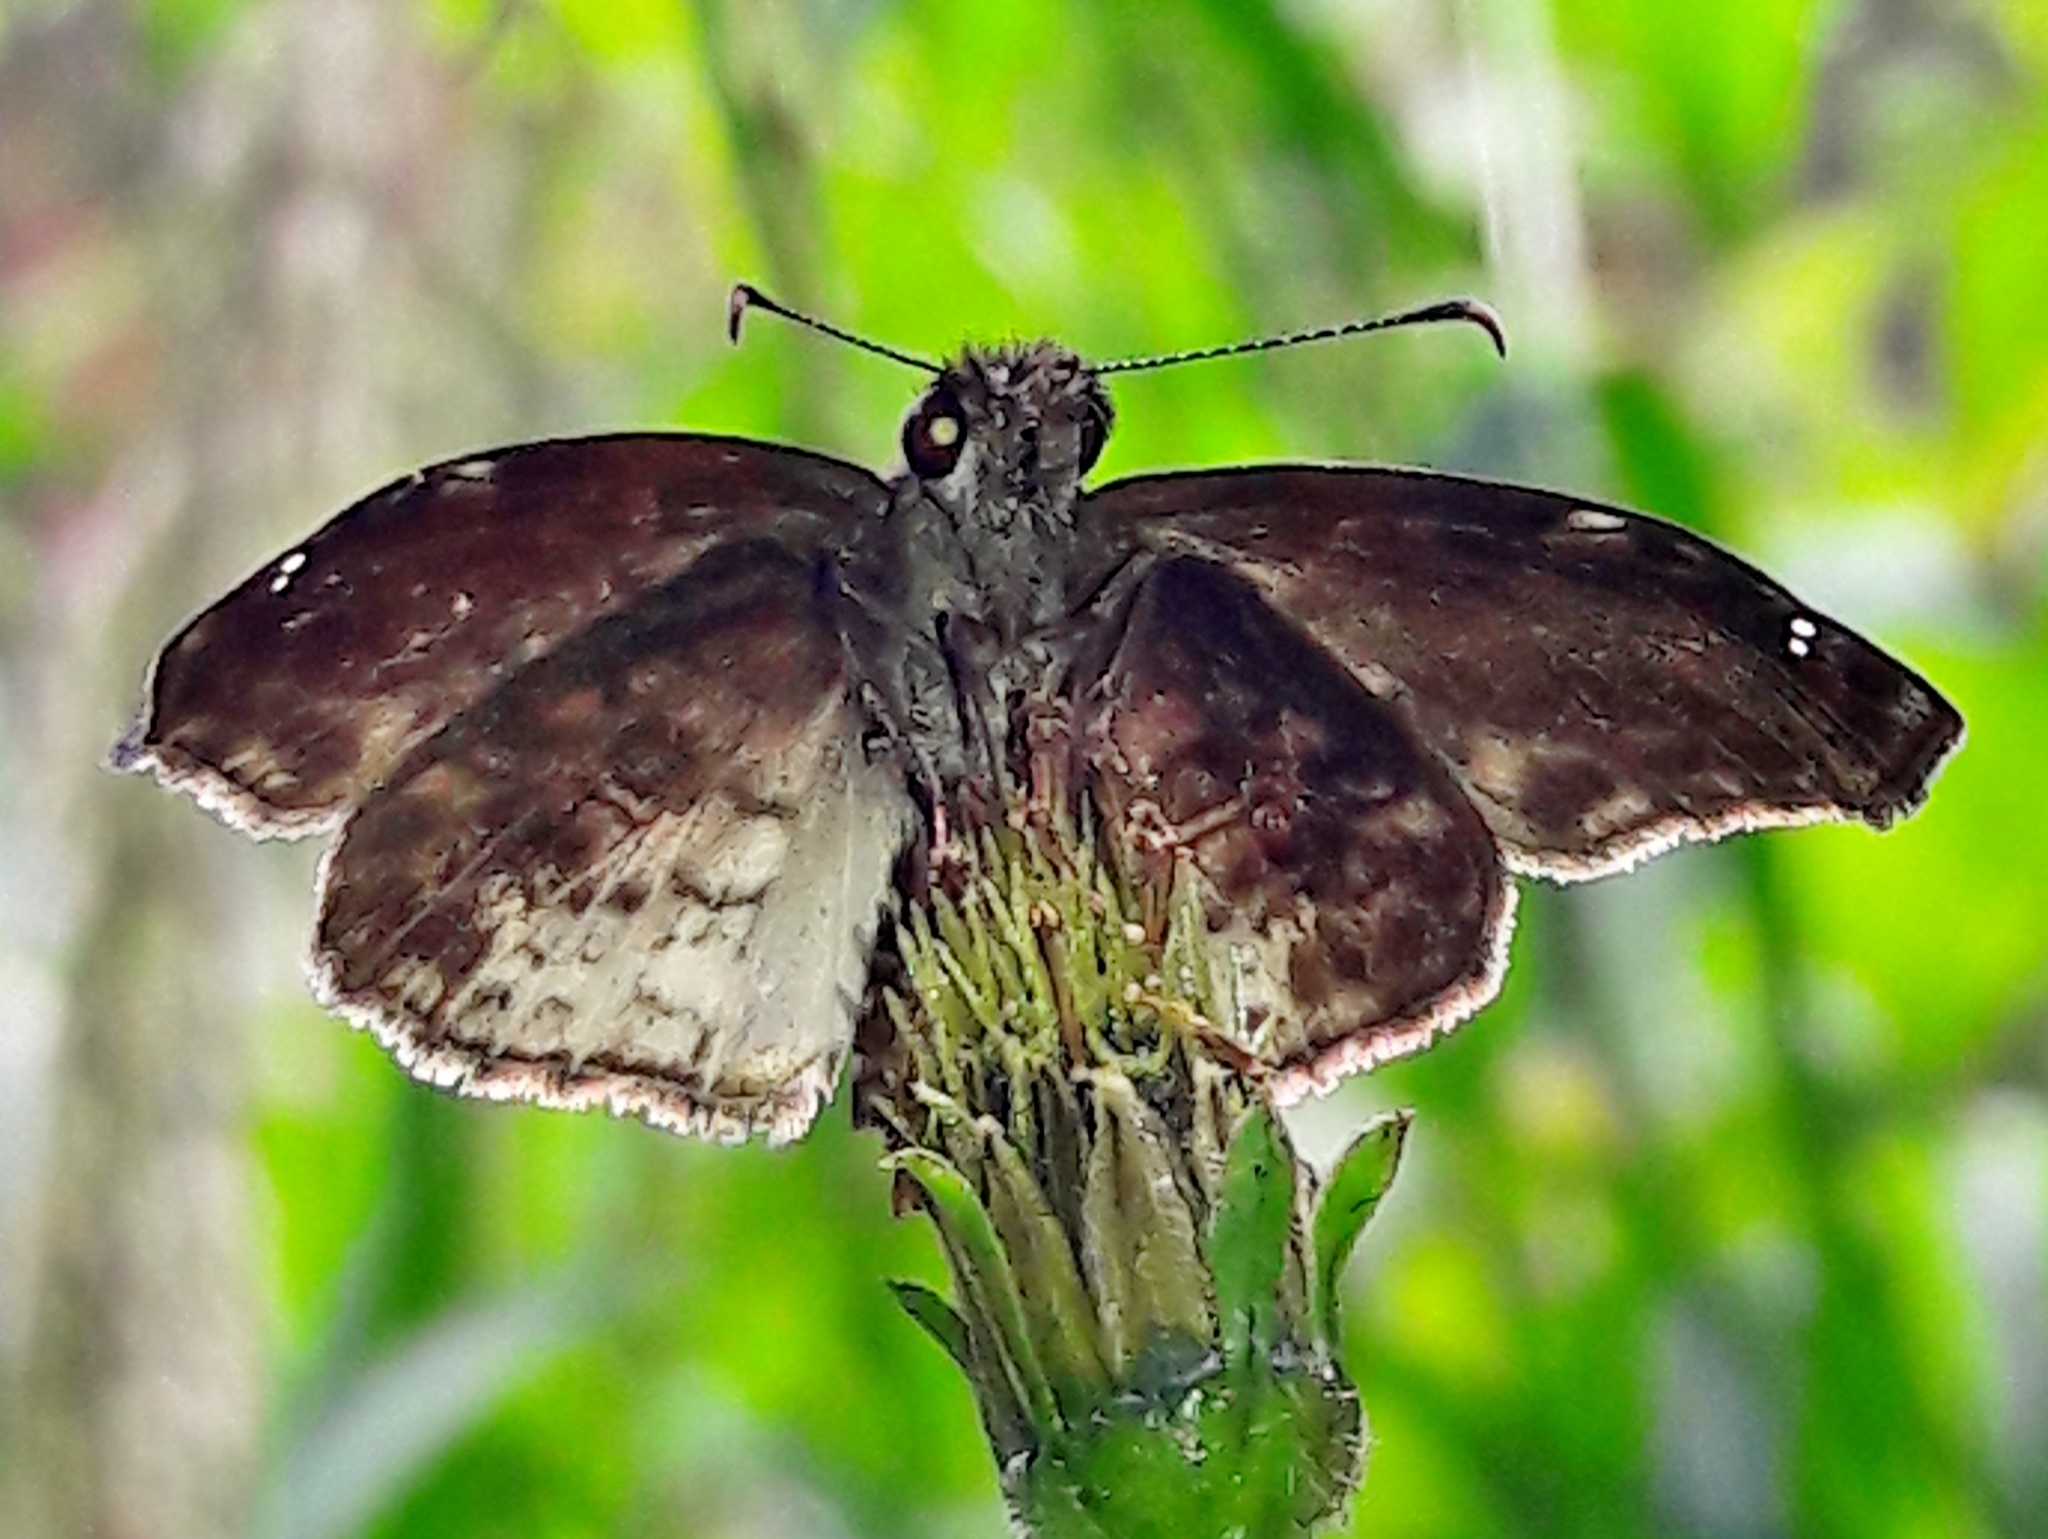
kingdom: Animalia
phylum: Arthropoda
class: Insecta
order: Lepidoptera
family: Hesperiidae
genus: Gorgythion
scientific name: Gorgythion begga
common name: Variegated skipper
